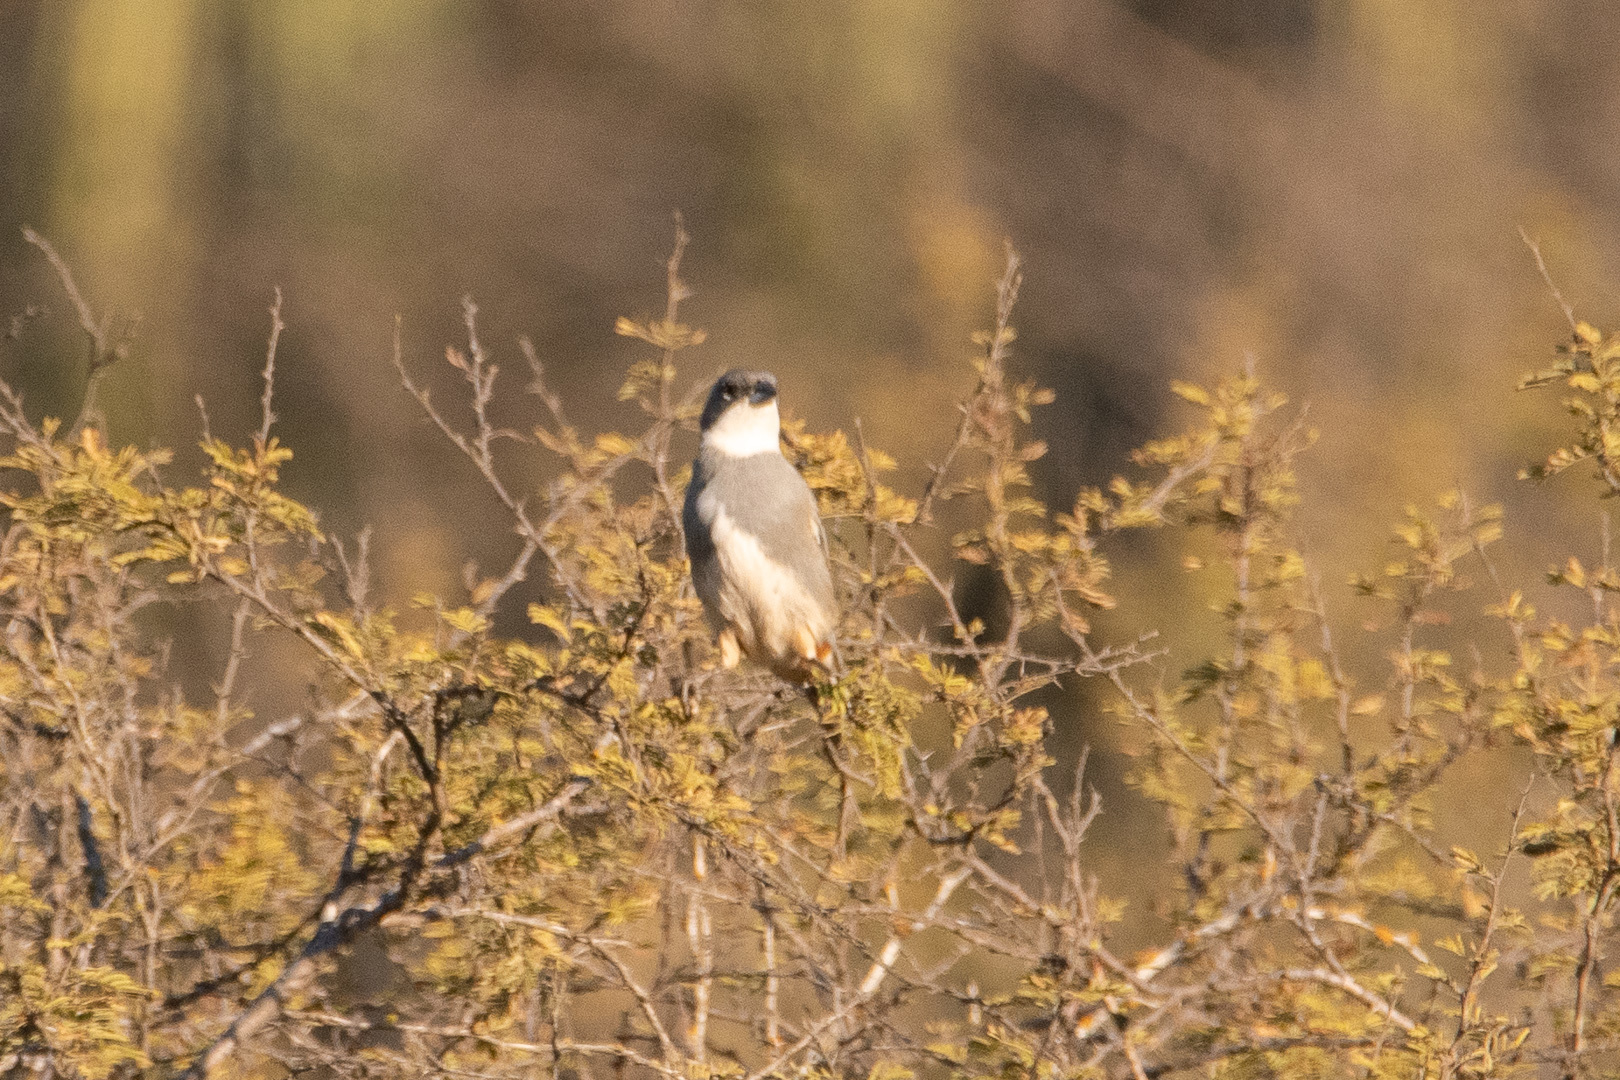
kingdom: Animalia
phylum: Chordata
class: Aves
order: Passeriformes
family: Thraupidae
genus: Diuca
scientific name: Diuca diuca
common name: Common diuca finch
